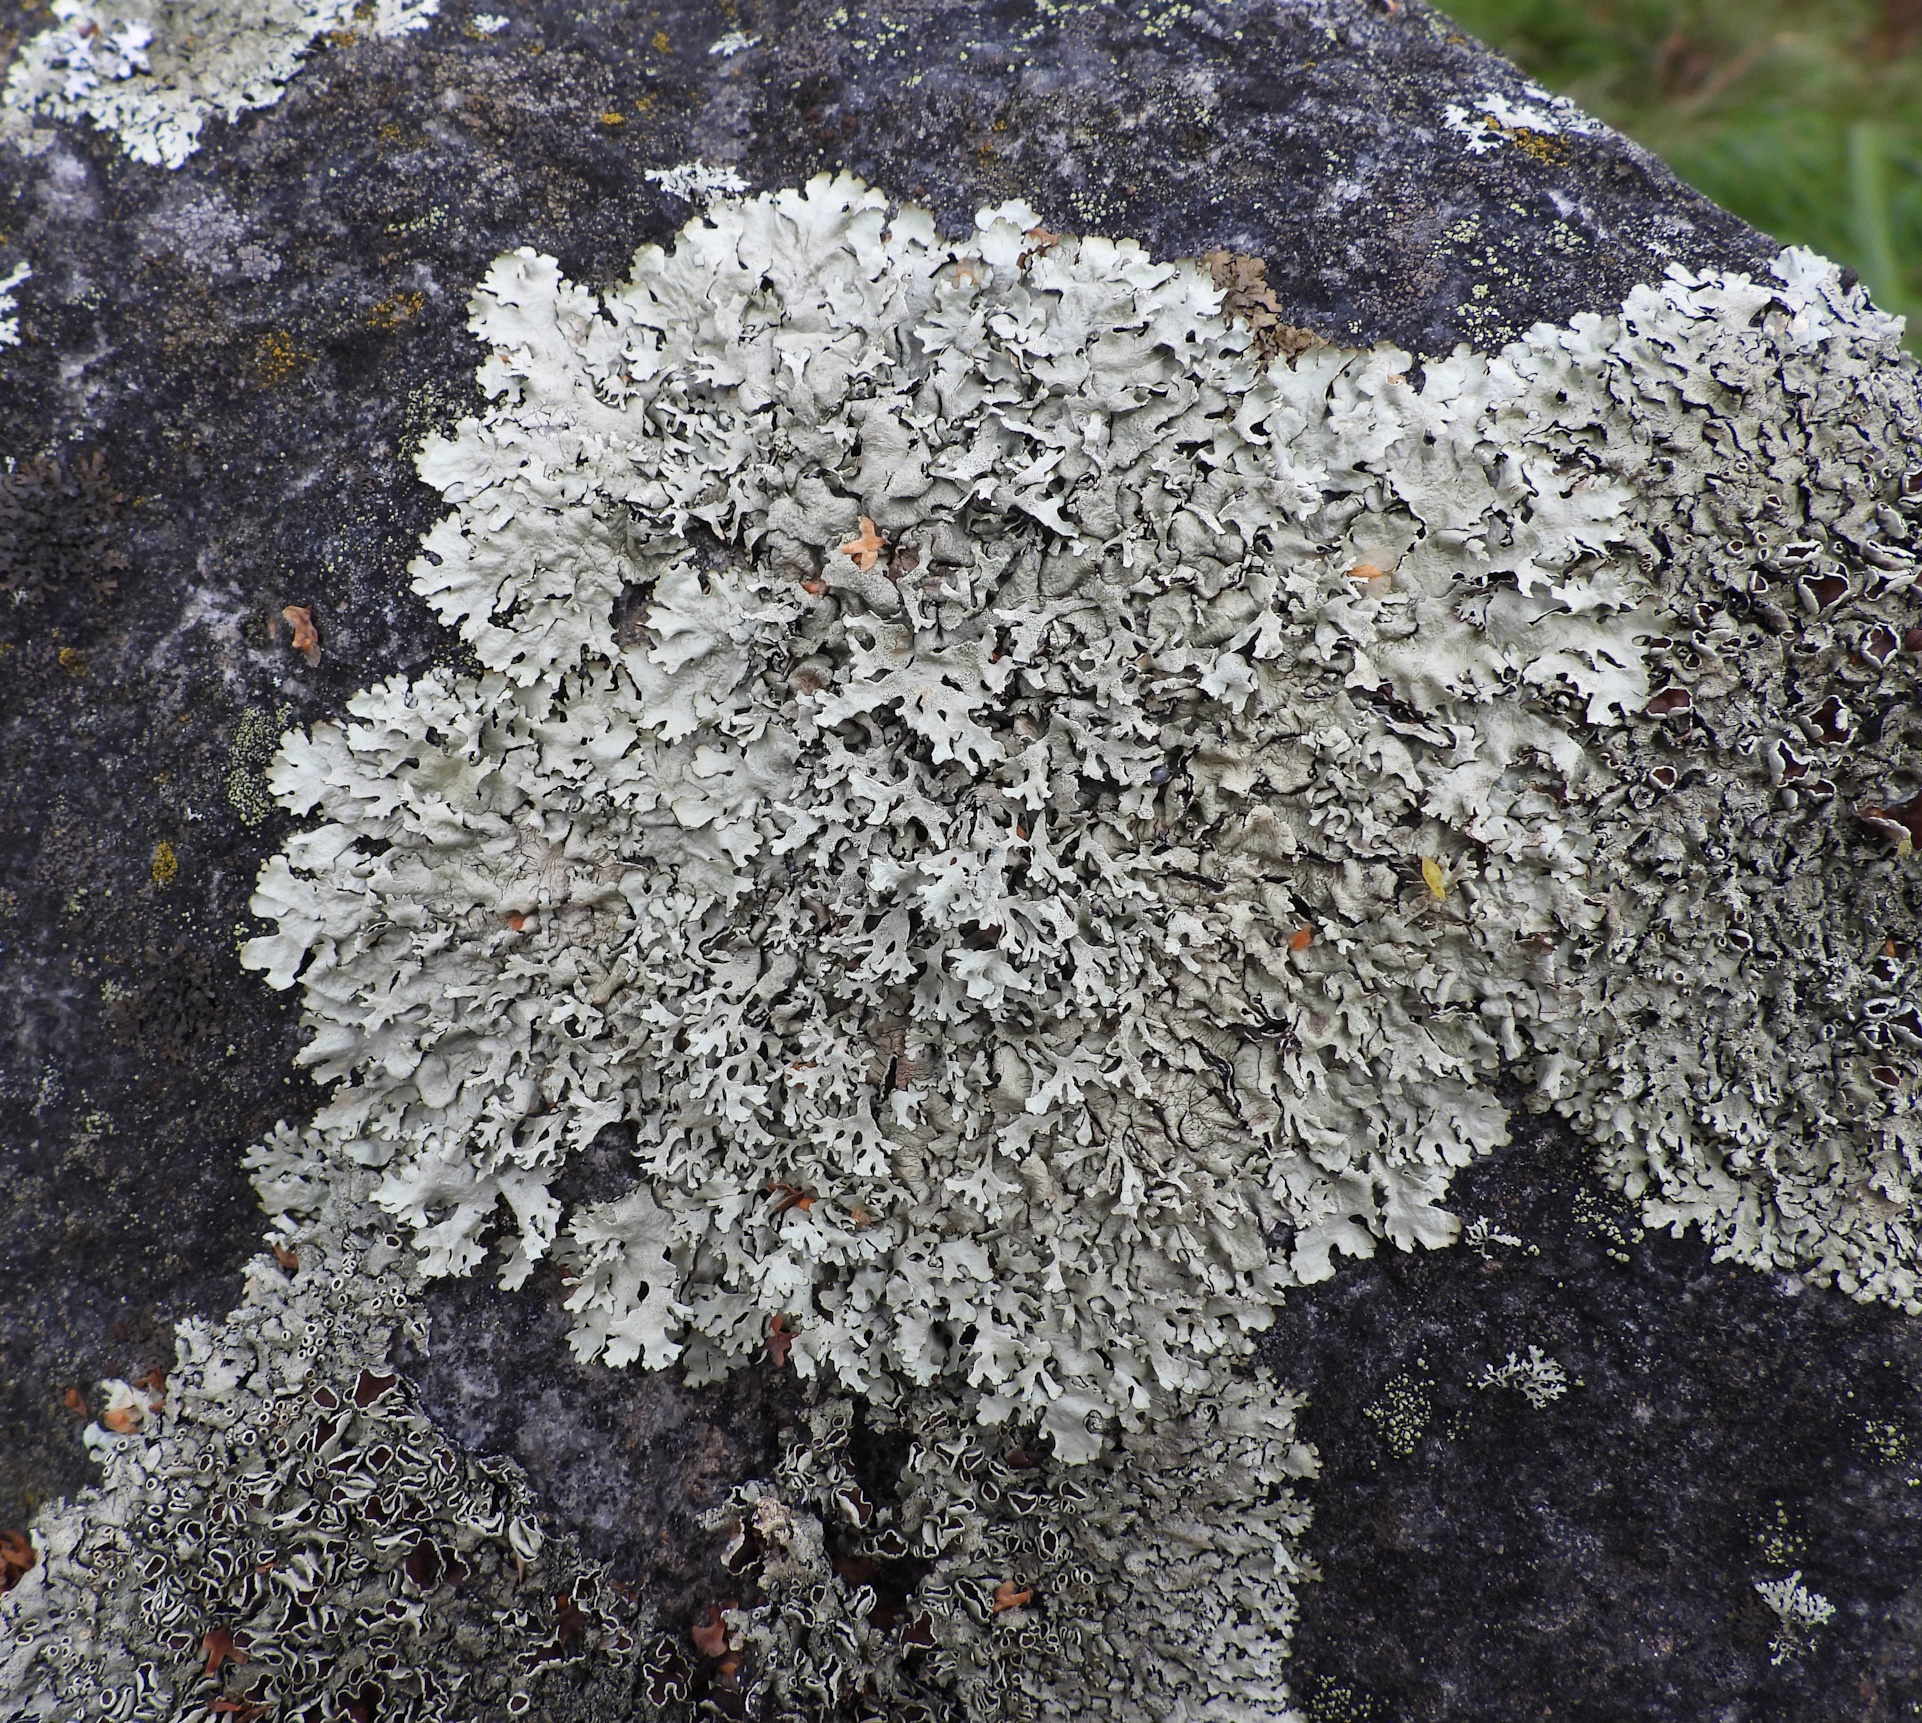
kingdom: Fungi
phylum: Ascomycota
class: Lecanoromycetes
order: Lecanorales
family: Parmeliaceae
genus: Xanthoparmelia
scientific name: Xanthoparmelia stenophylla
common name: Shingled rock shield
